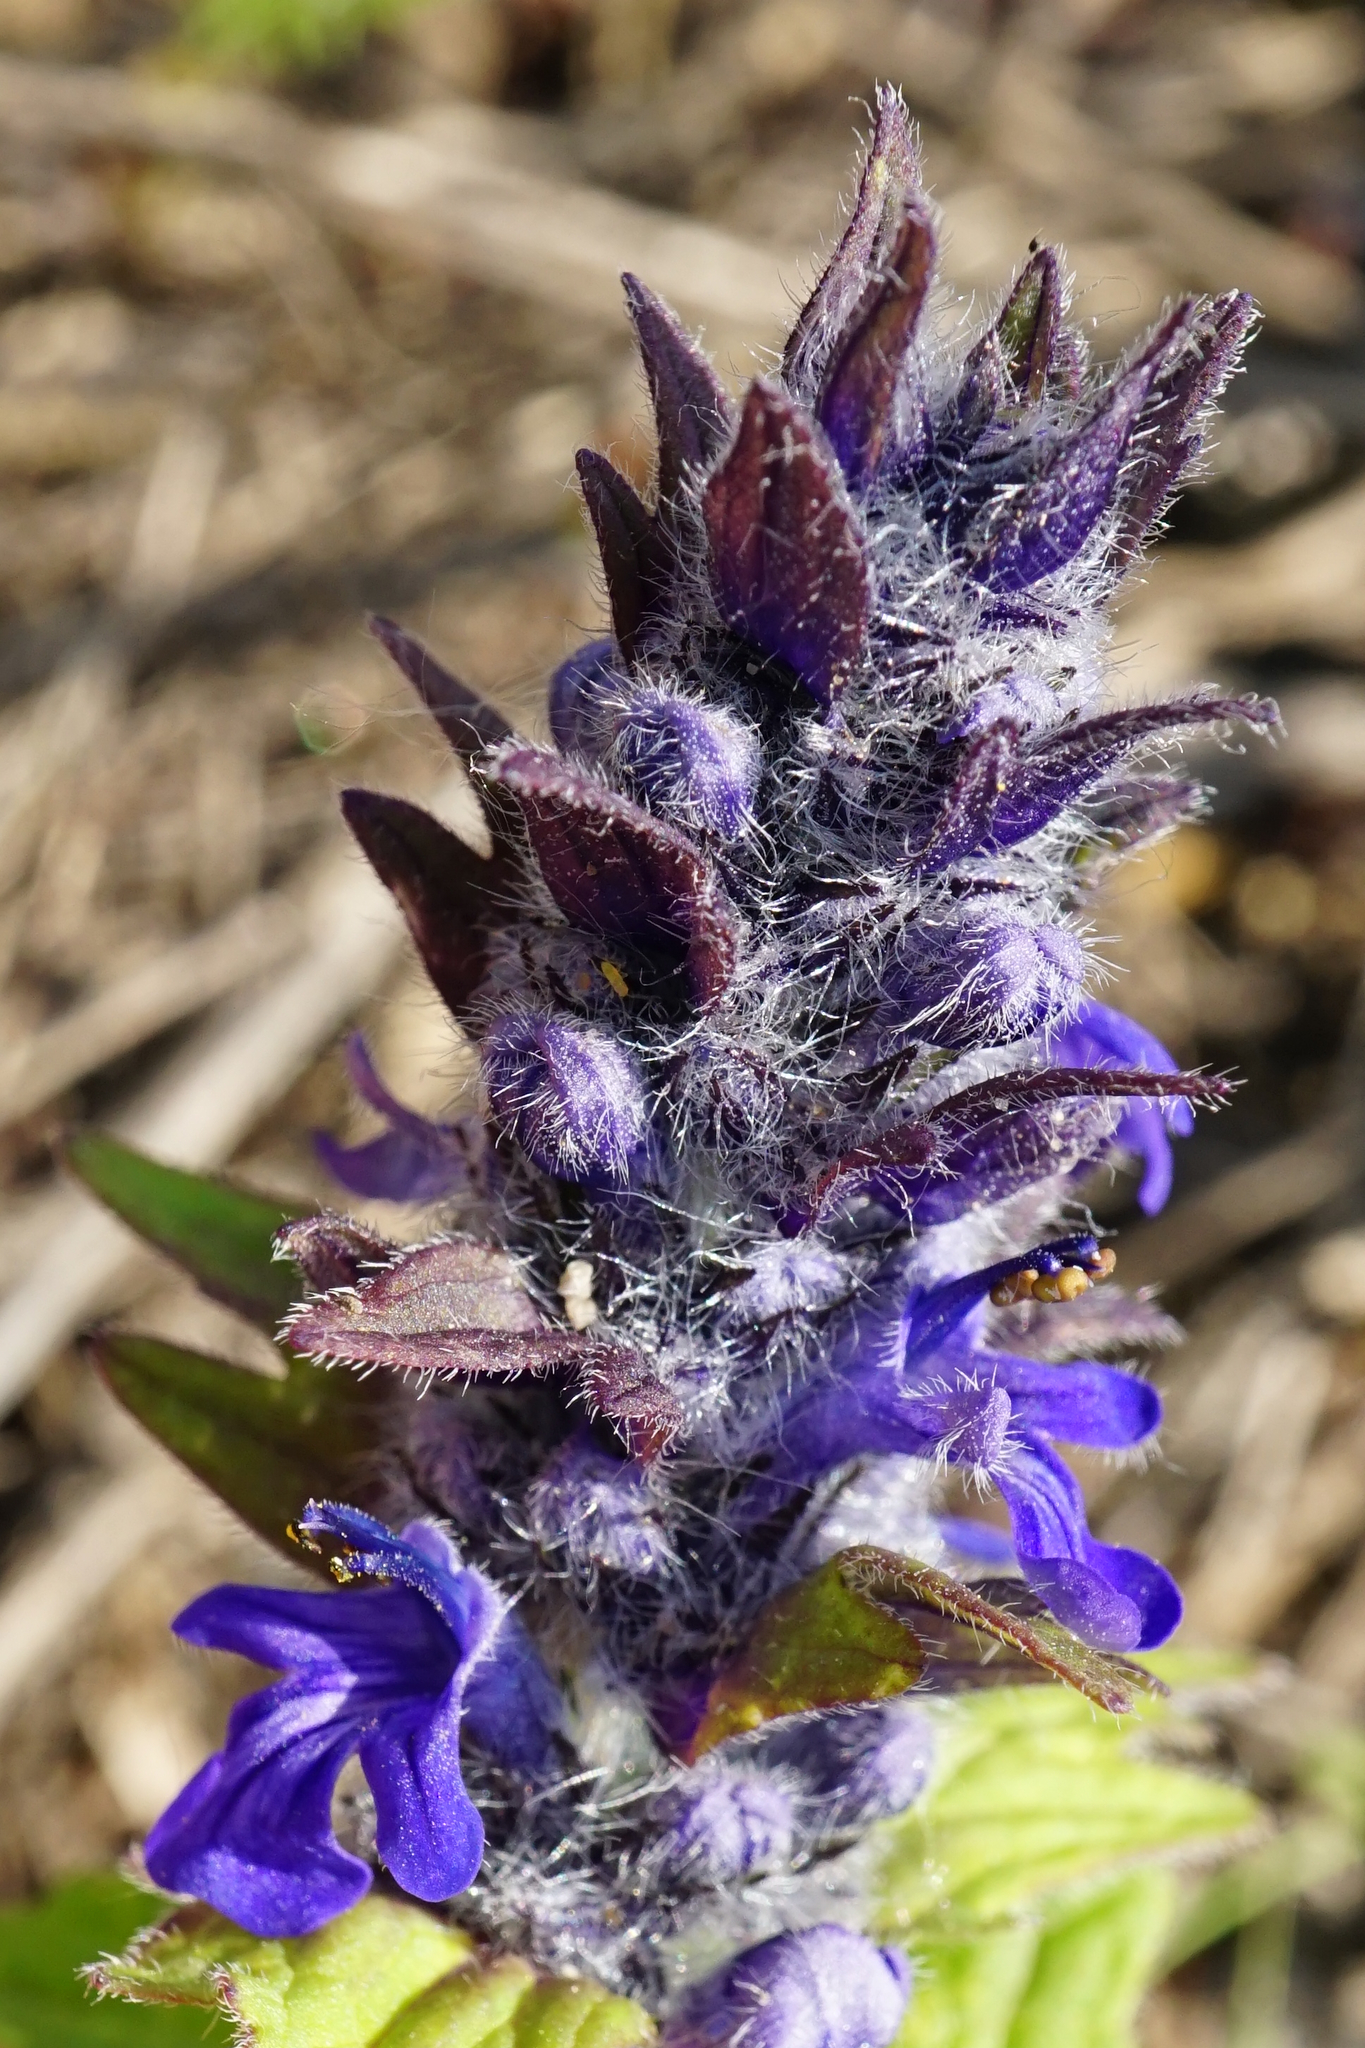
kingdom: Plantae
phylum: Tracheophyta
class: Magnoliopsida
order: Lamiales
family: Lamiaceae
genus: Ajuga
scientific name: Ajuga genevensis
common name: Blue bugle
